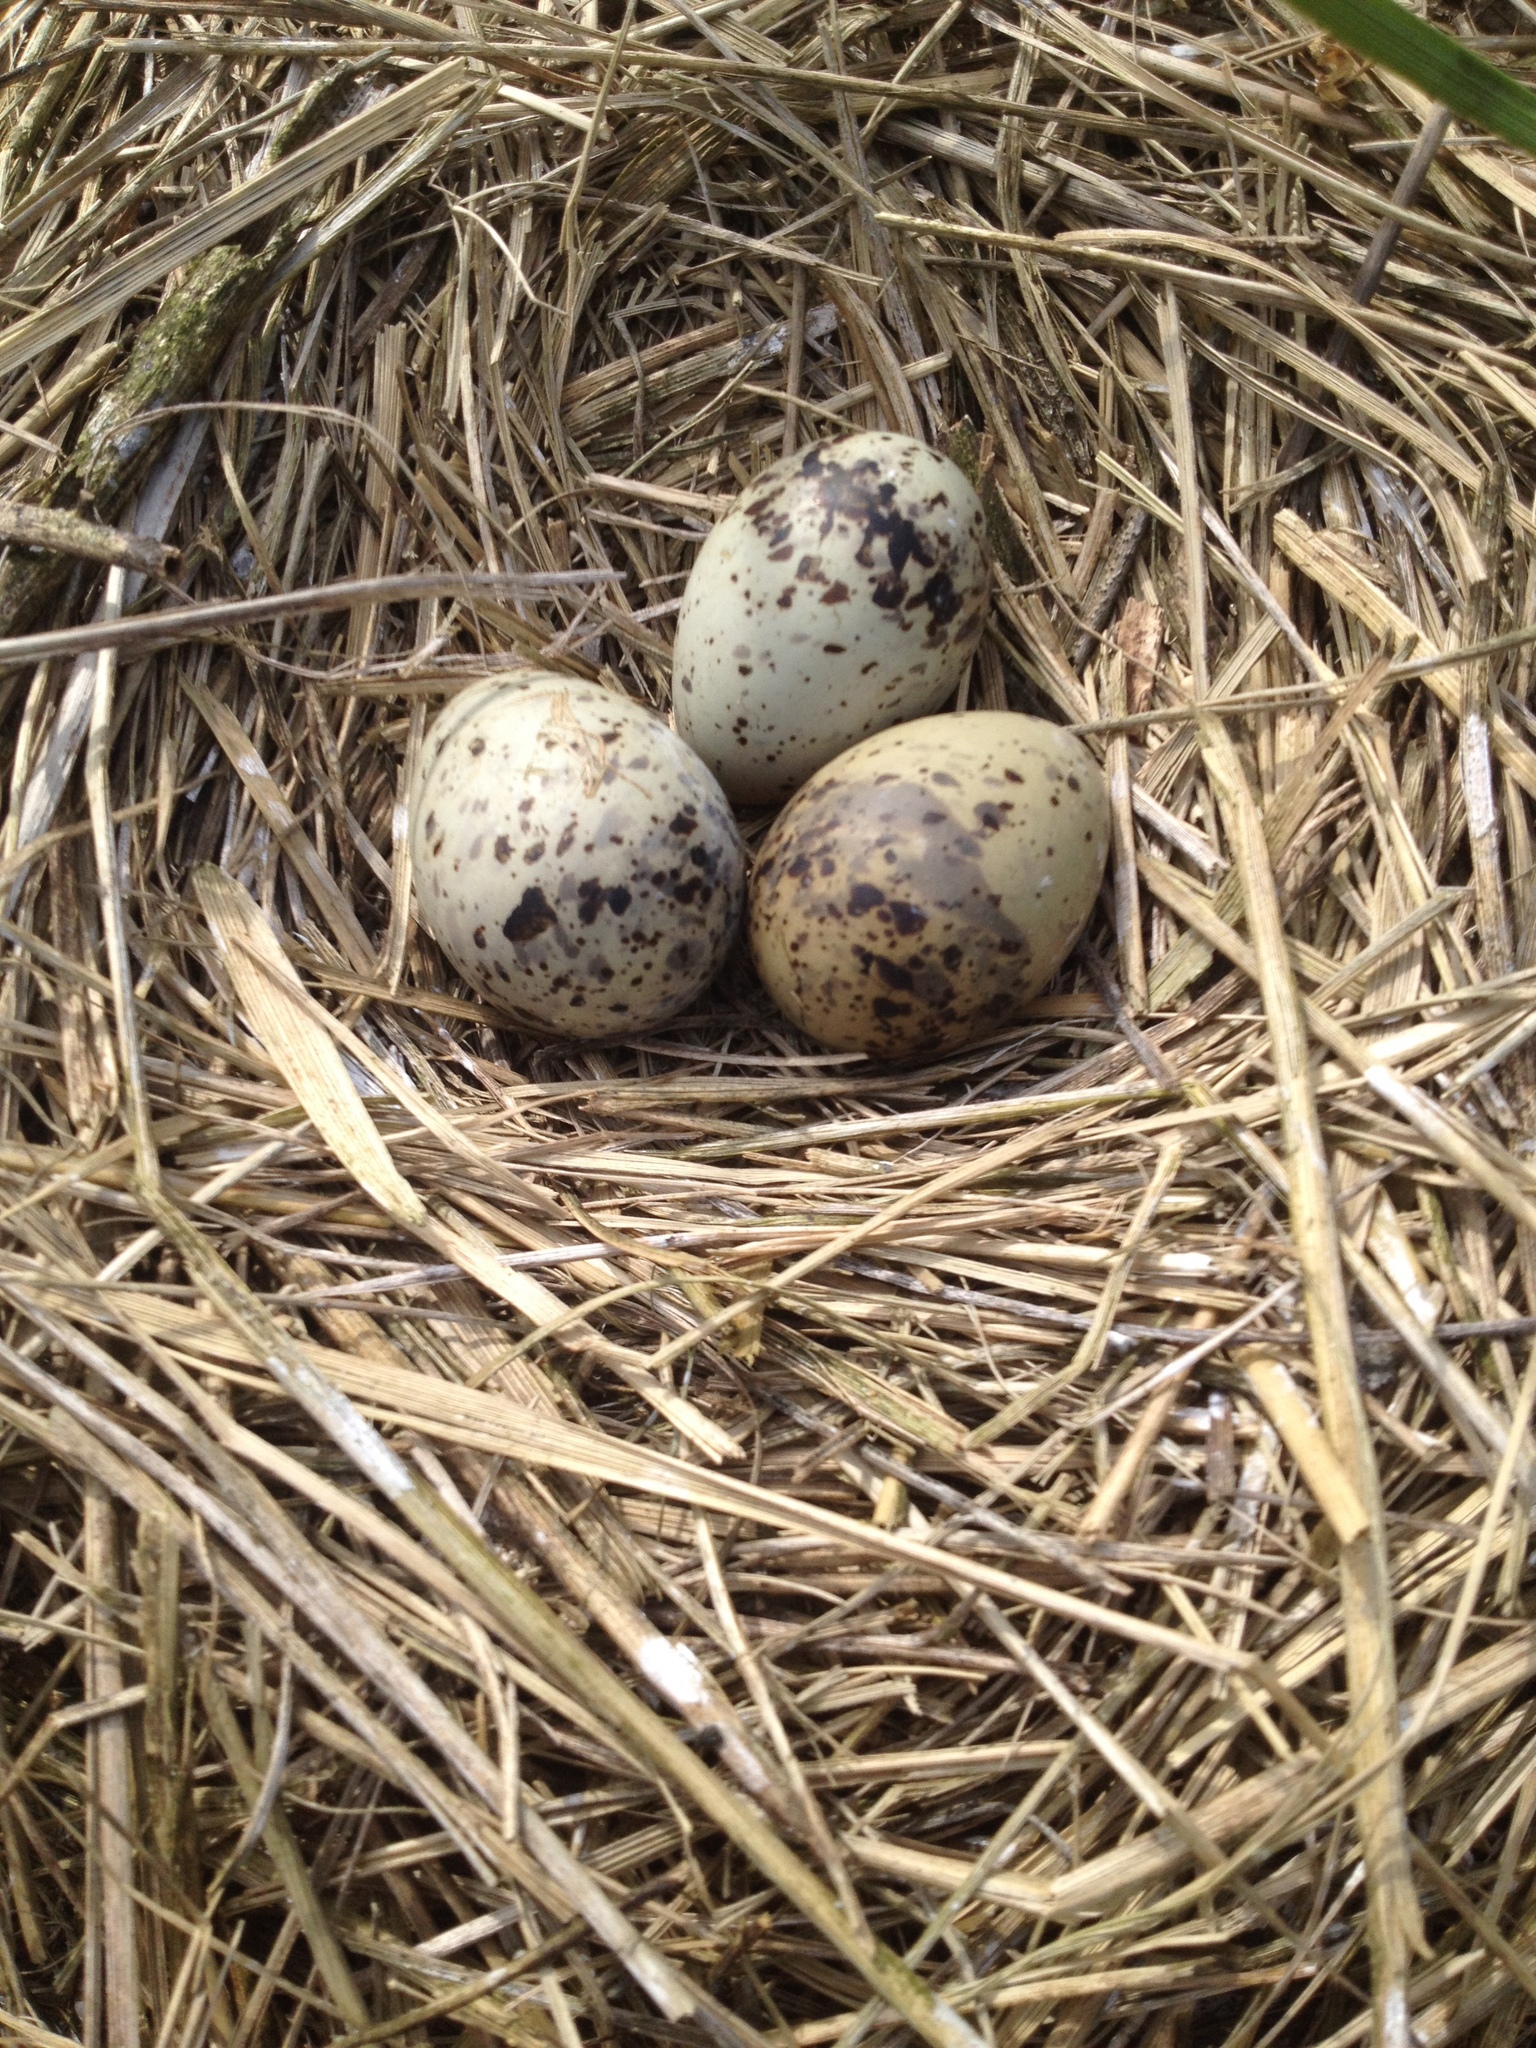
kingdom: Animalia
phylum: Chordata
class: Aves
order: Charadriiformes
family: Laridae
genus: Sterna
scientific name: Sterna hirundo
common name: Common tern
